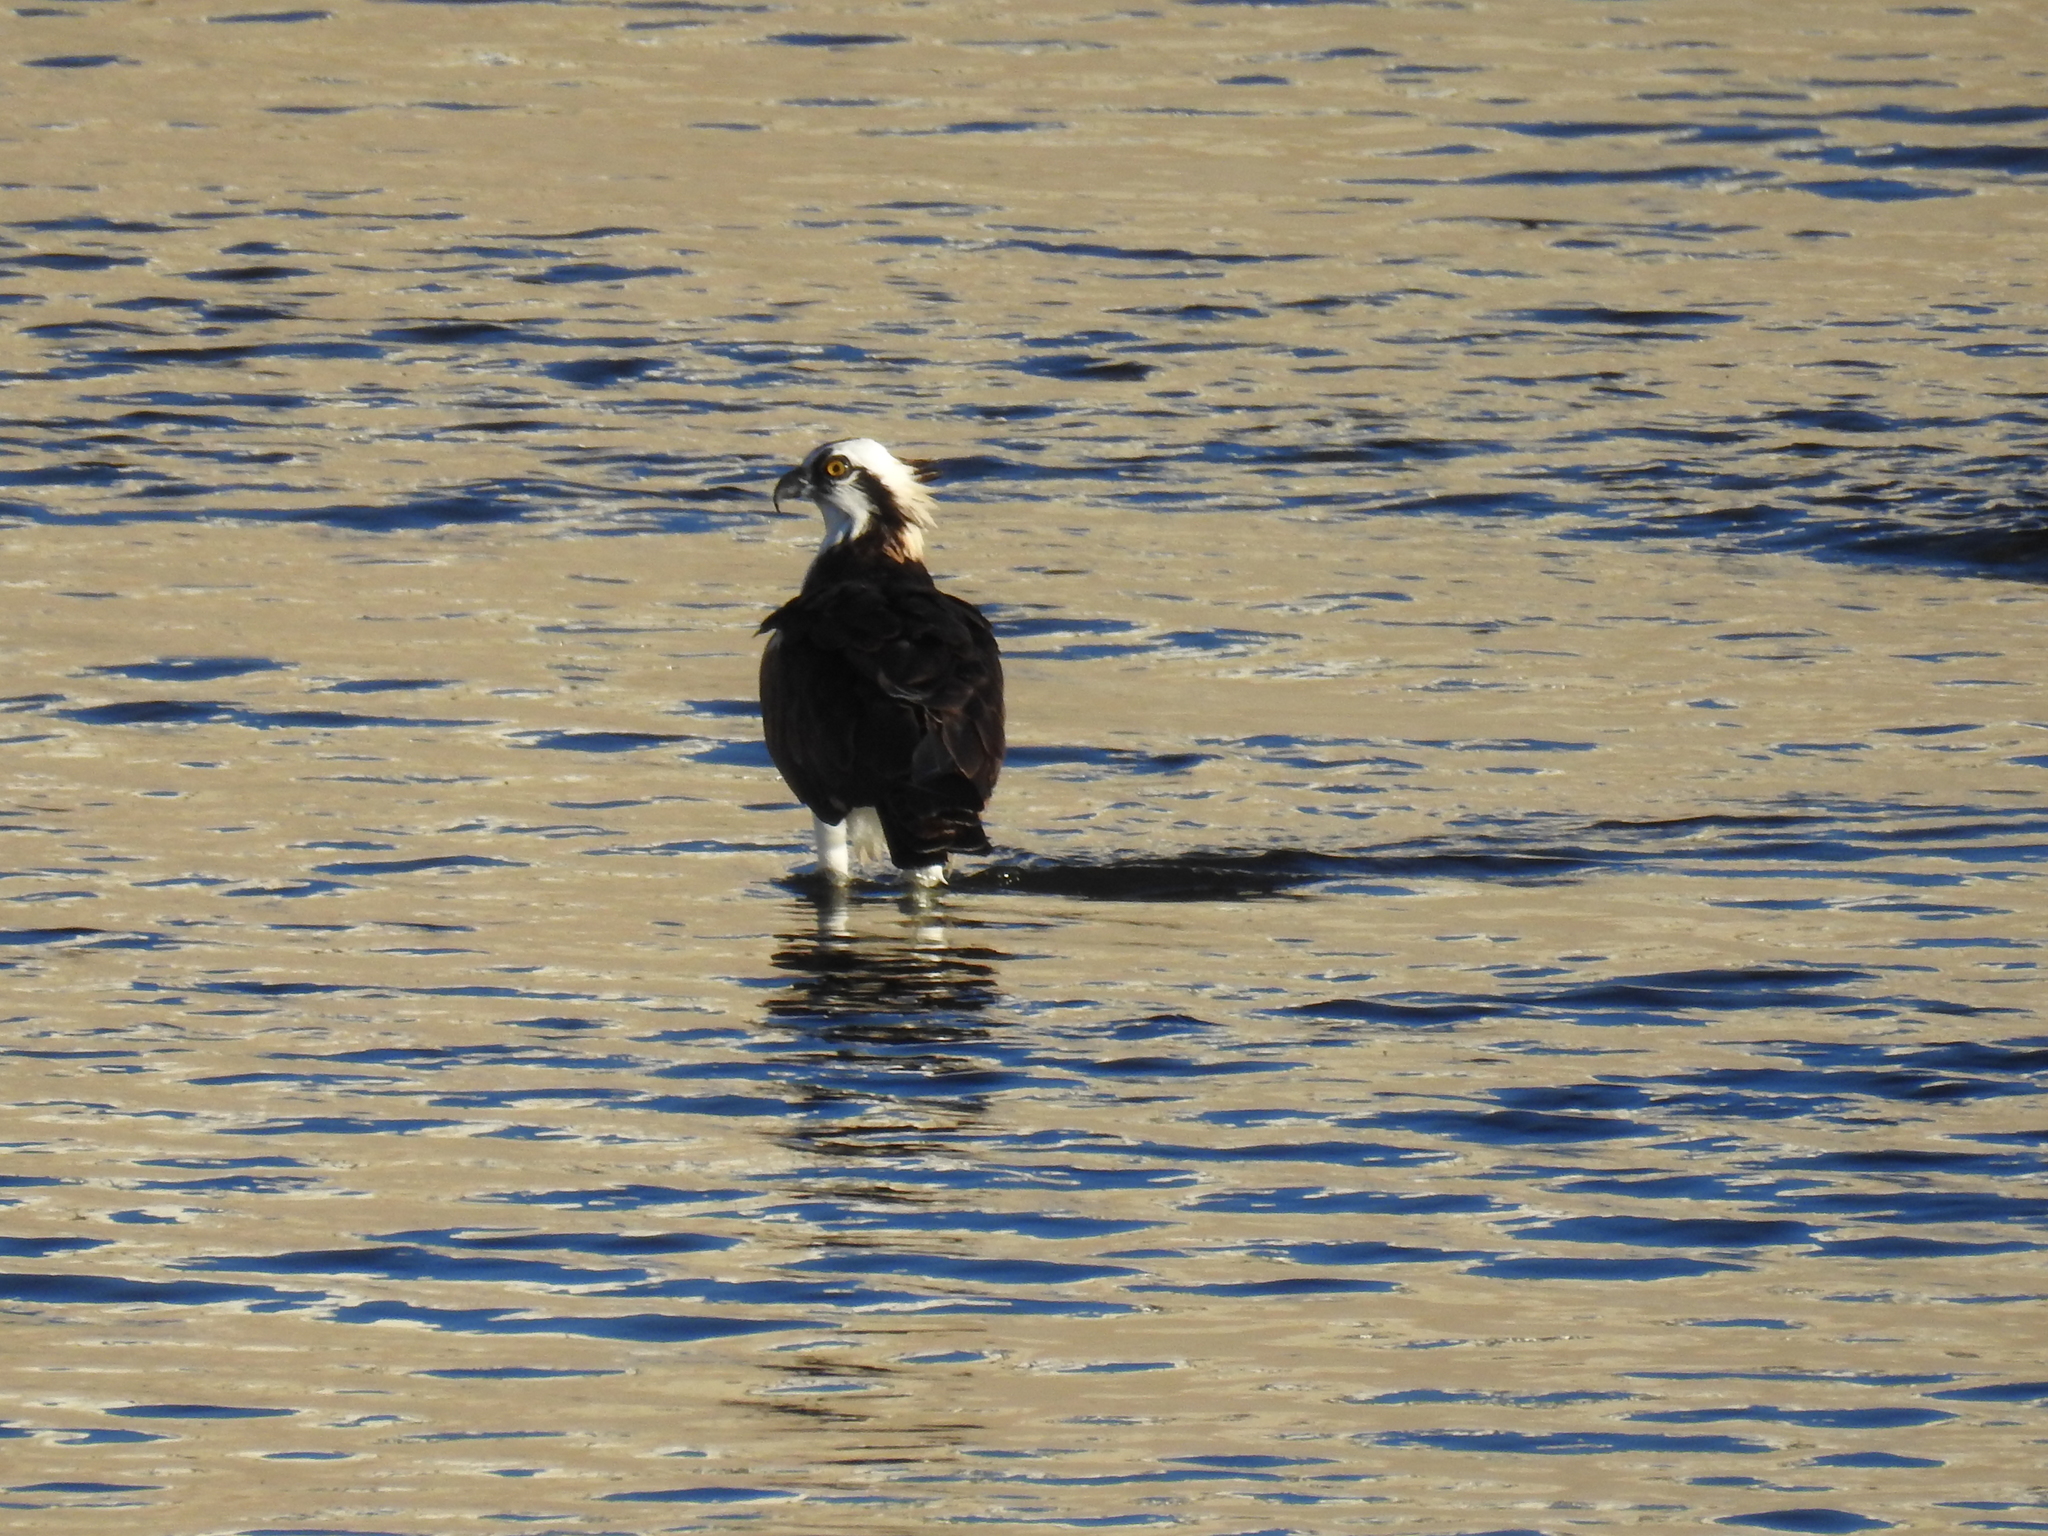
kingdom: Animalia
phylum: Chordata
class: Aves
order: Accipitriformes
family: Pandionidae
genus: Pandion
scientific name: Pandion haliaetus
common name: Osprey
